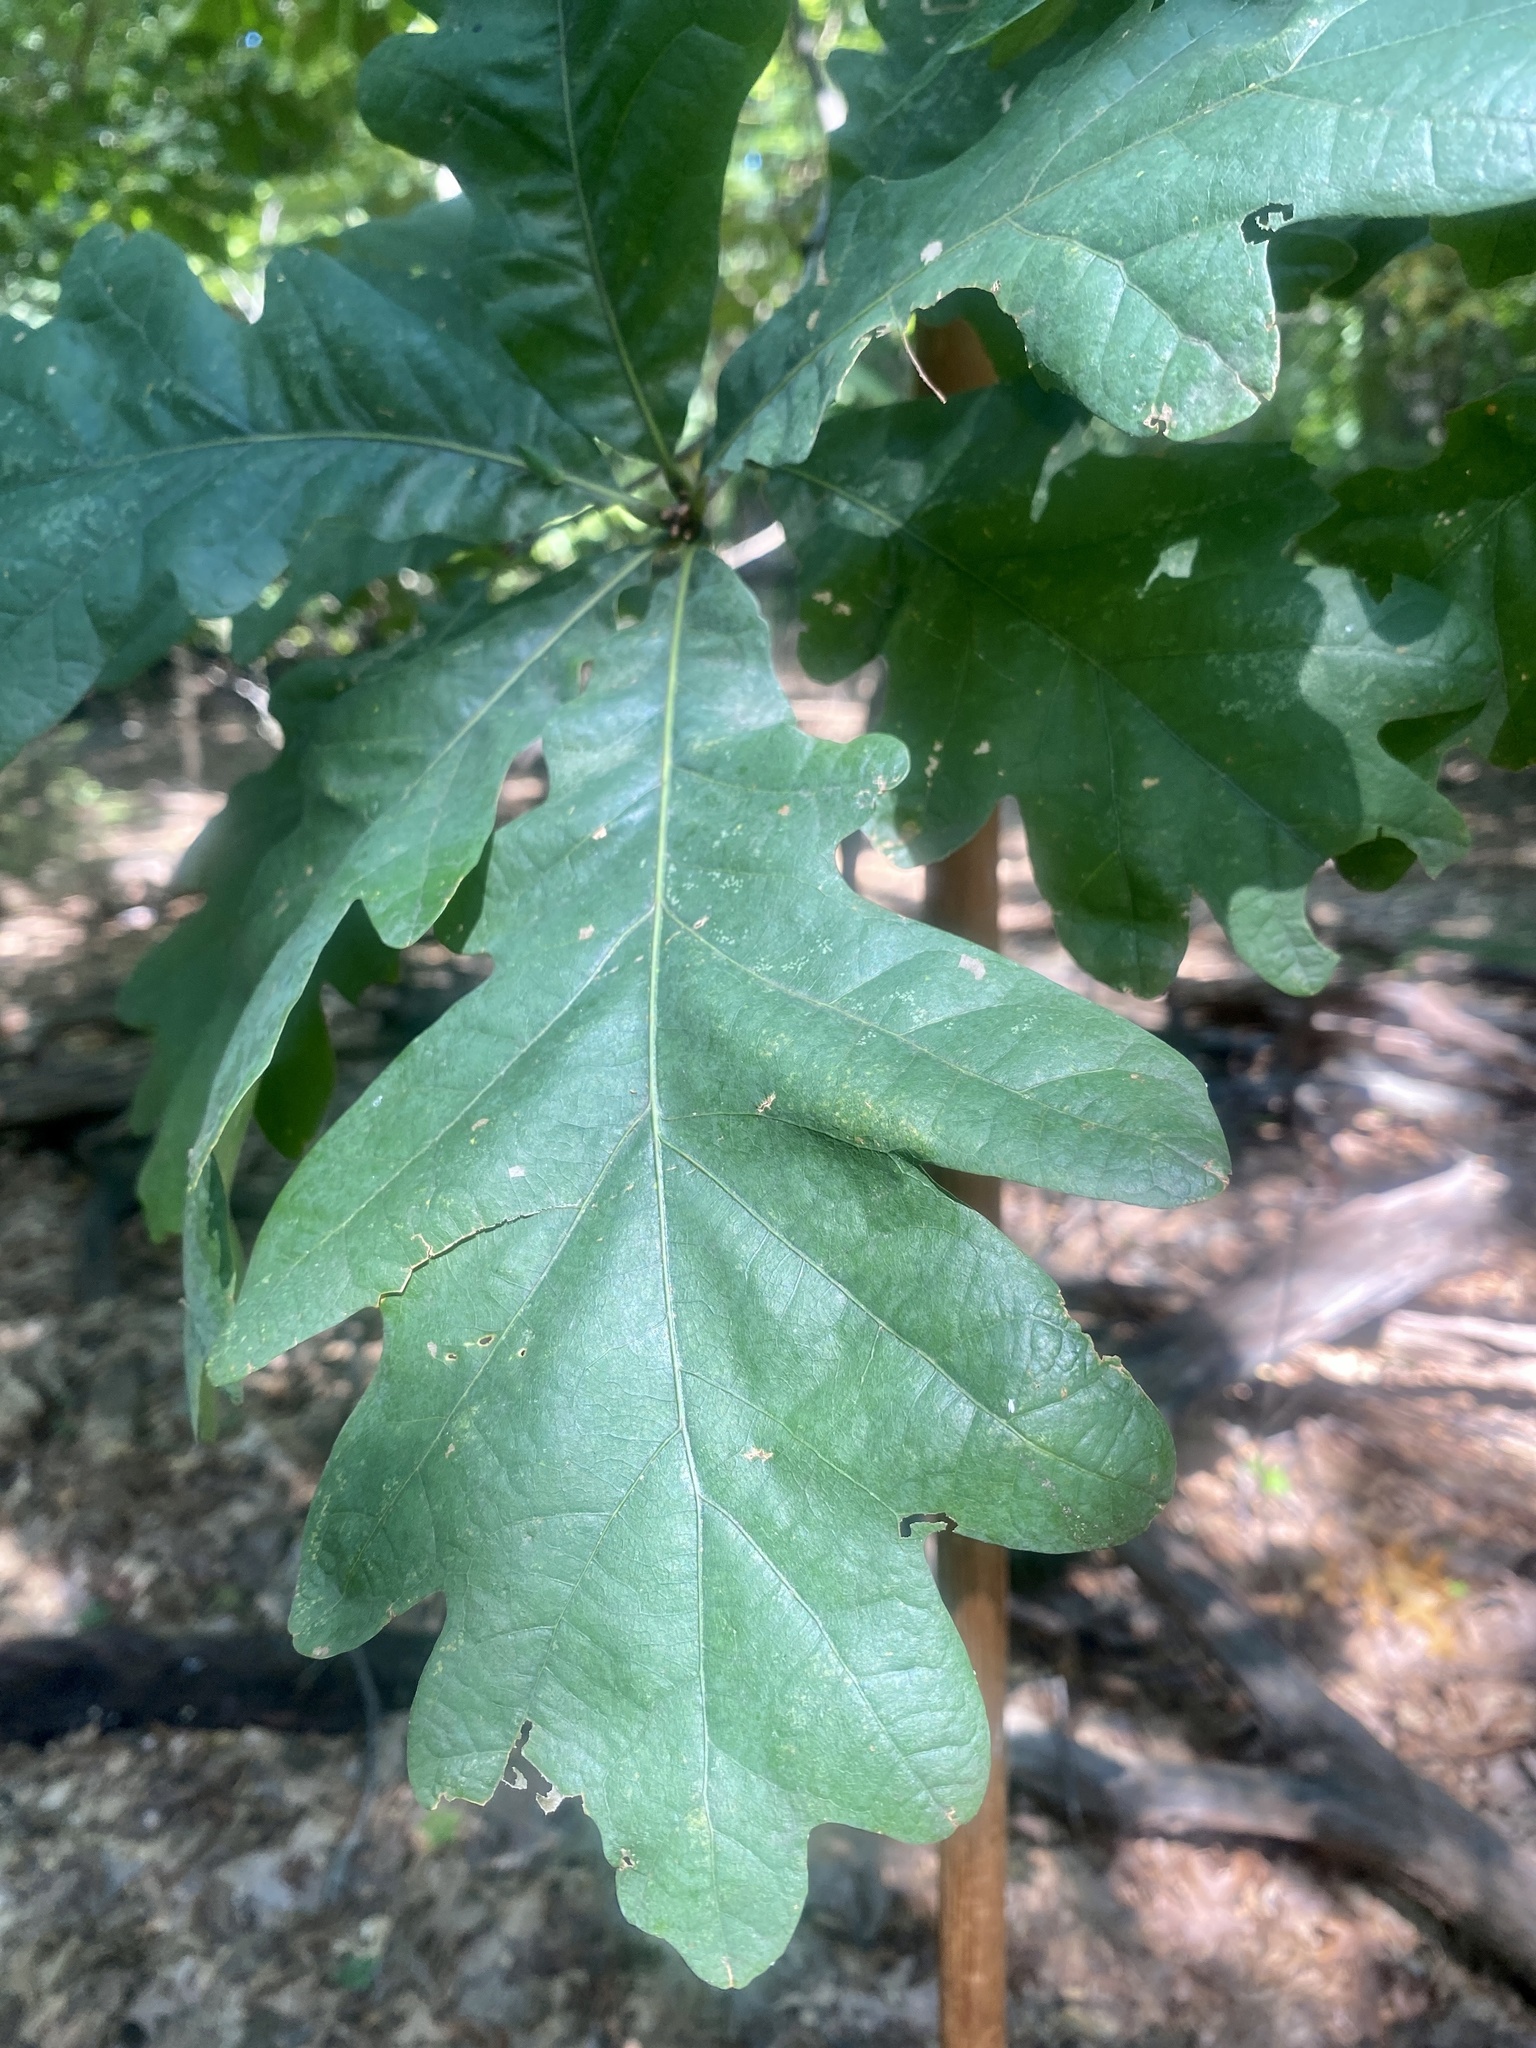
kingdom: Plantae
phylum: Tracheophyta
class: Magnoliopsida
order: Fagales
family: Fagaceae
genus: Quercus
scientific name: Quercus alba
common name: White oak
